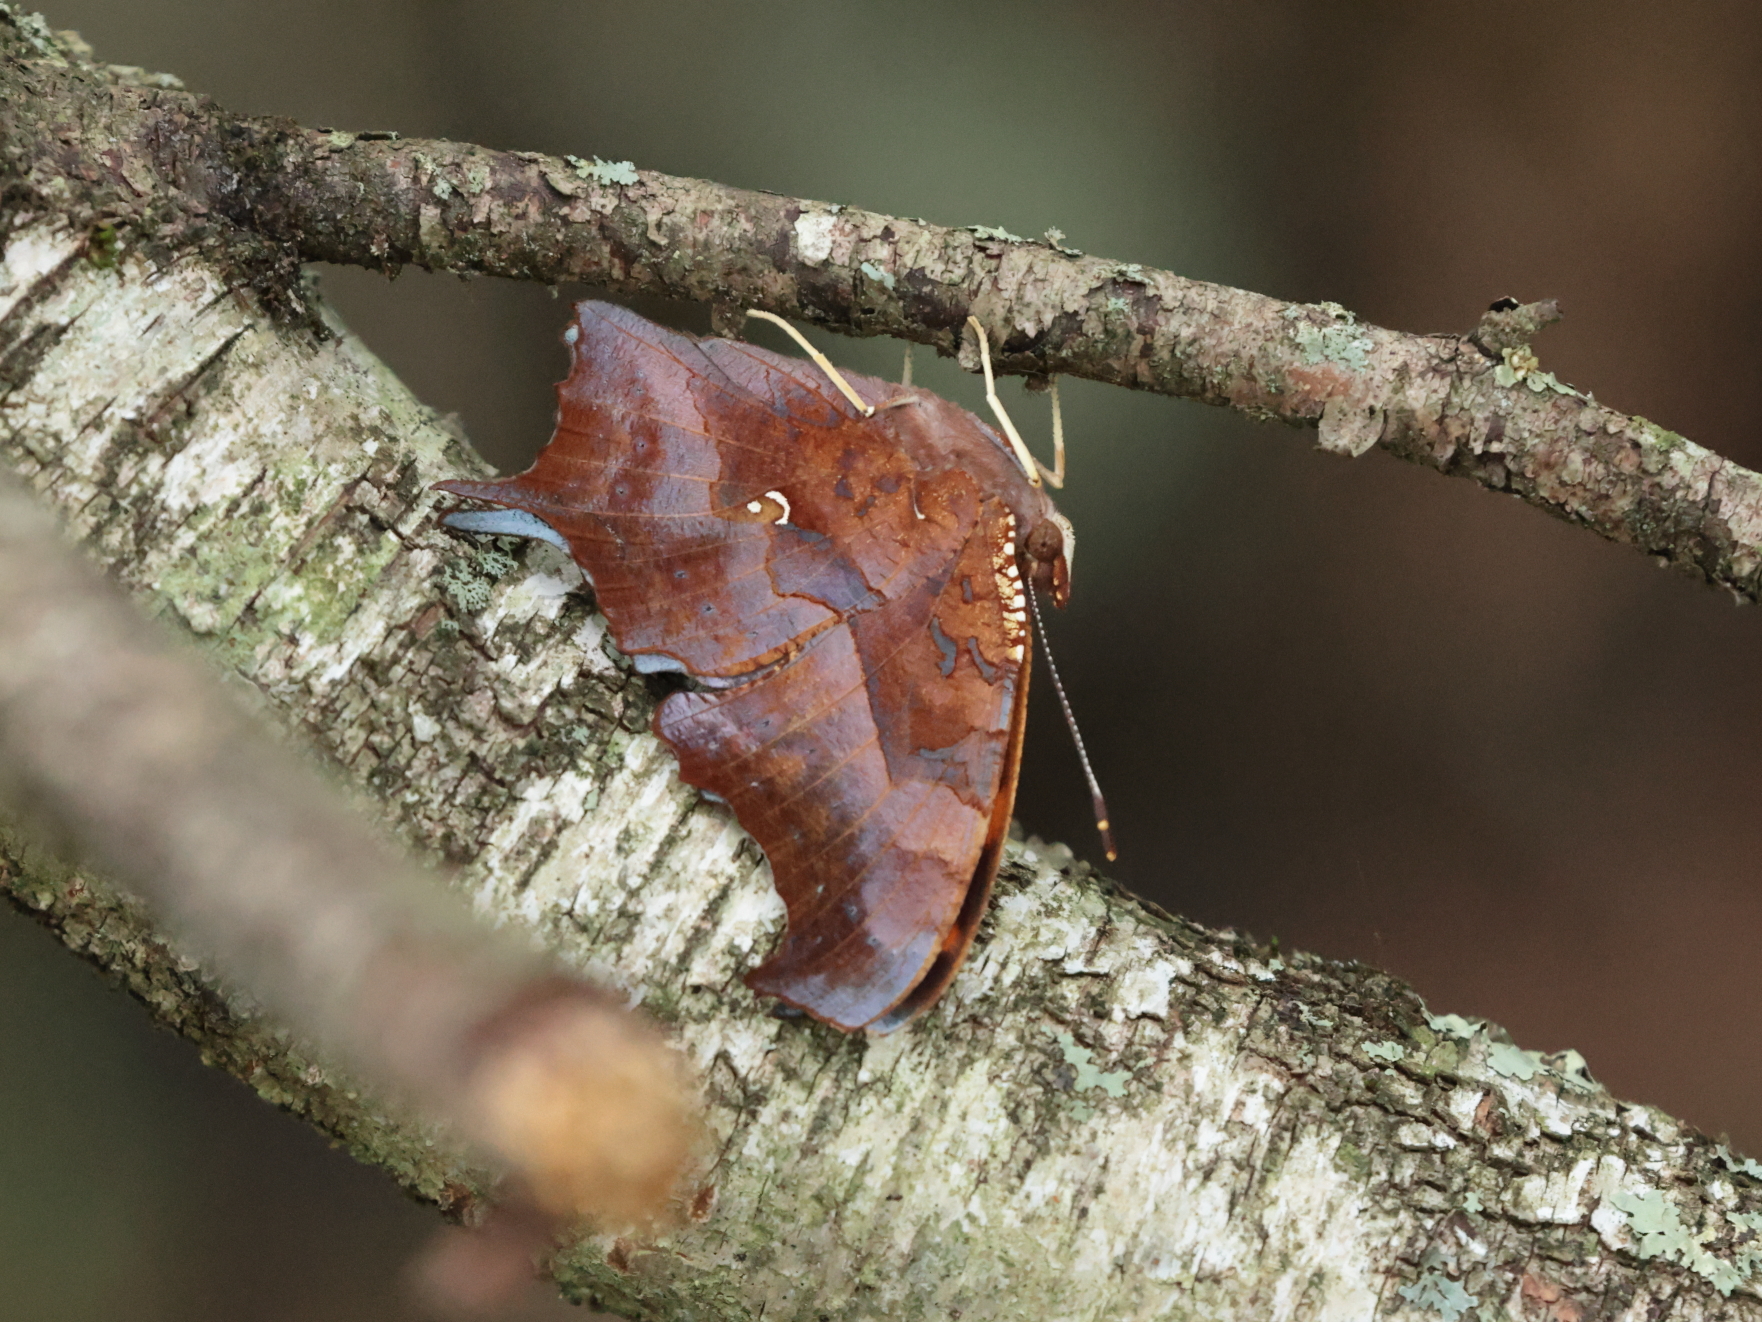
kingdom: Animalia
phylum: Arthropoda
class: Insecta
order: Lepidoptera
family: Nymphalidae
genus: Polygonia
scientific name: Polygonia interrogationis
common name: Question mark
